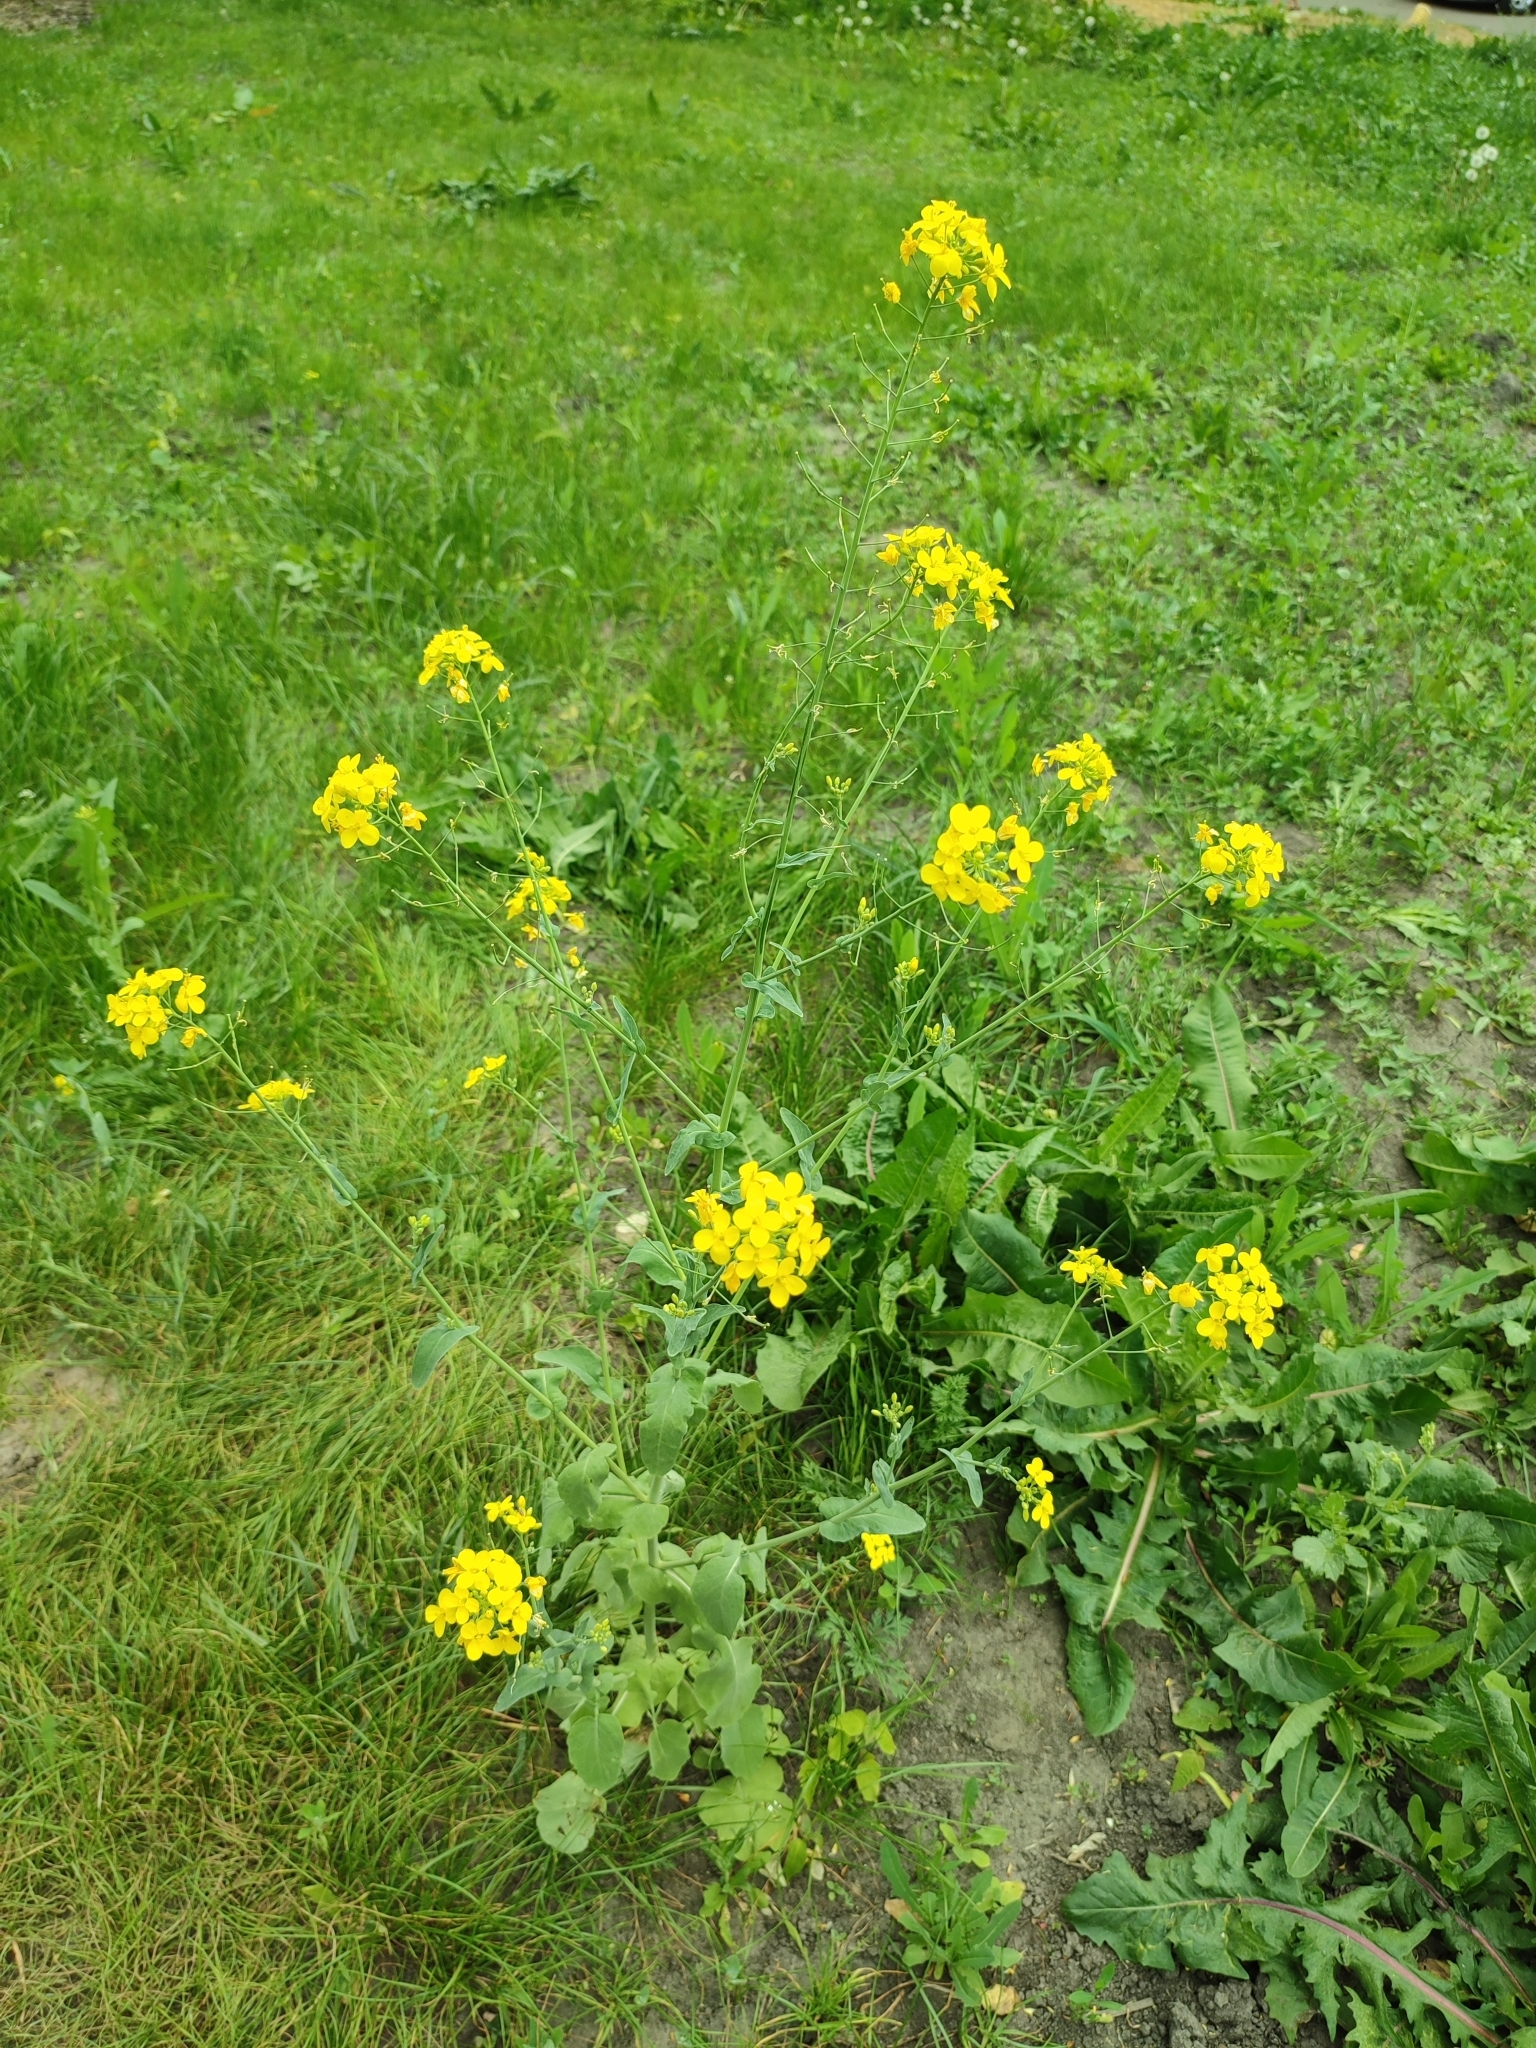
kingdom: Plantae
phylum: Tracheophyta
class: Magnoliopsida
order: Brassicales
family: Brassicaceae
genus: Brassica
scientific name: Brassica rapa
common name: Field mustard
